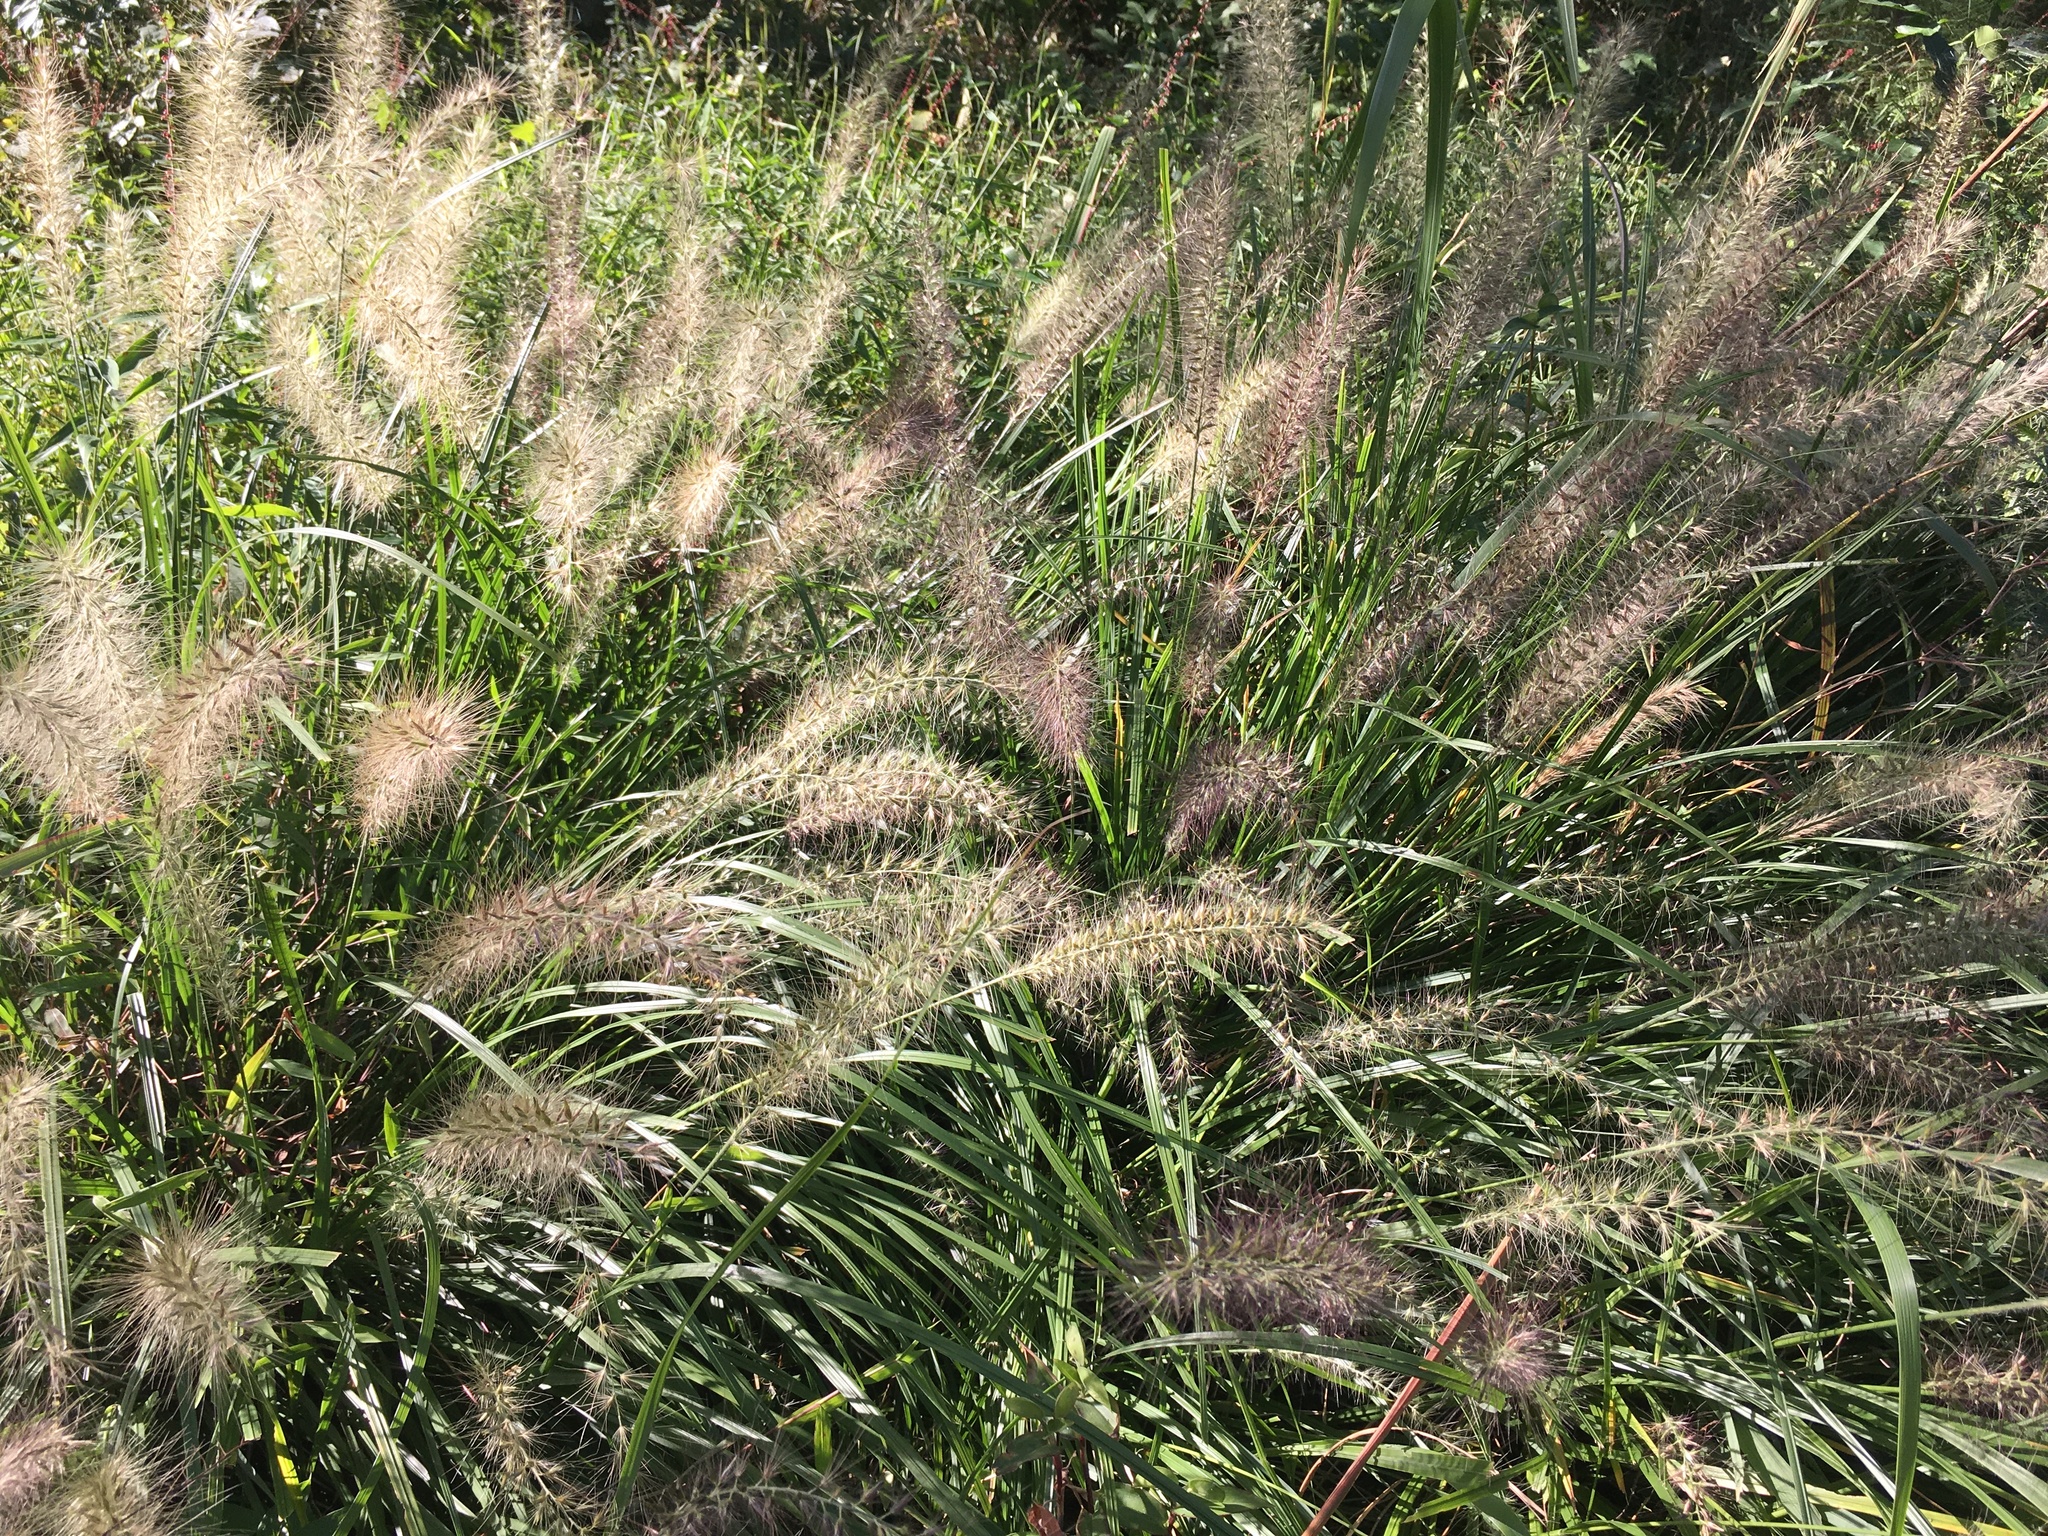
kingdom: Plantae
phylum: Tracheophyta
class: Liliopsida
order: Poales
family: Poaceae
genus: Cenchrus
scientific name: Cenchrus alopecuroides
